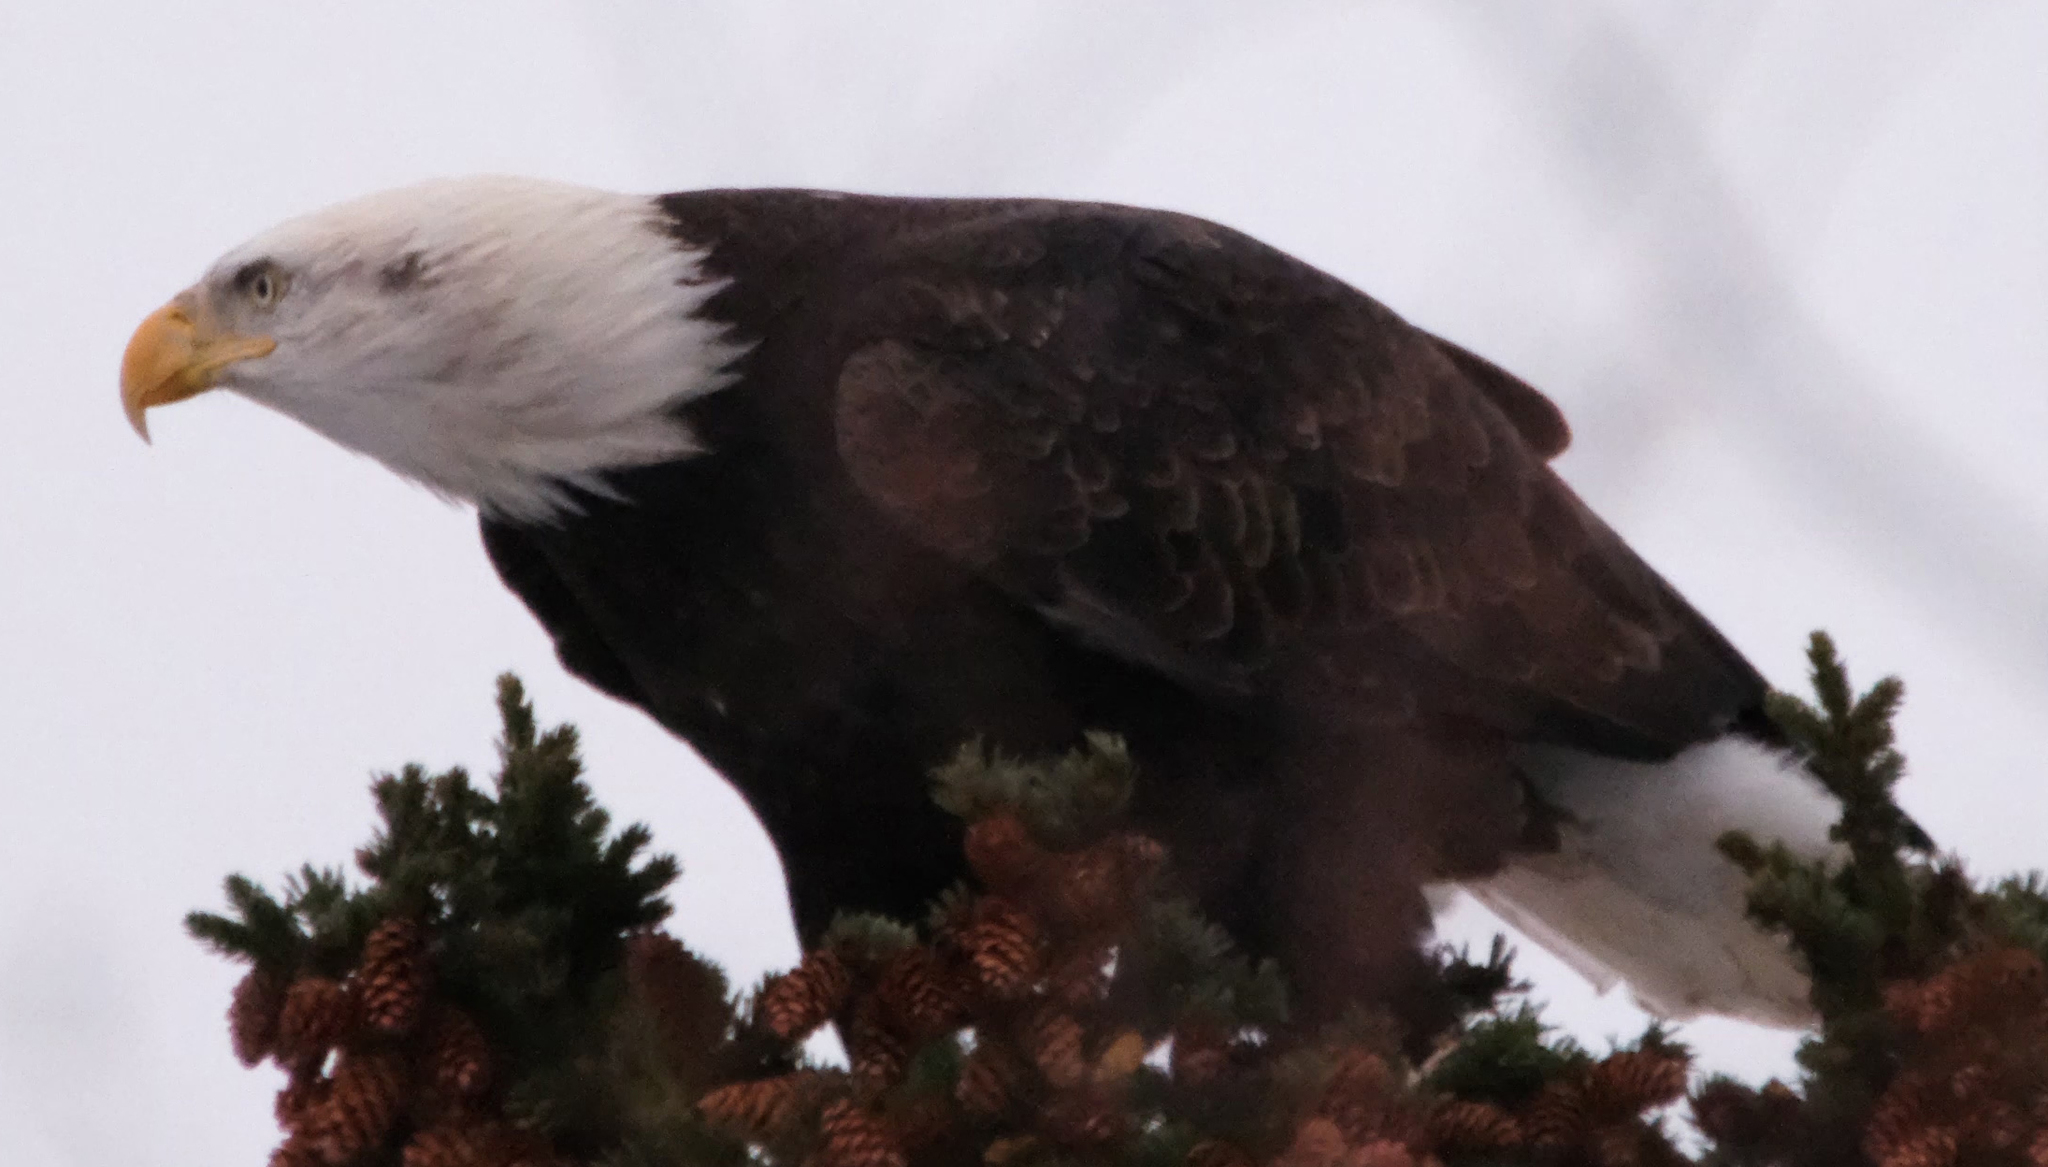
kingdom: Animalia
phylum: Chordata
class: Aves
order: Accipitriformes
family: Accipitridae
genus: Haliaeetus
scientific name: Haliaeetus leucocephalus
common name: Bald eagle
